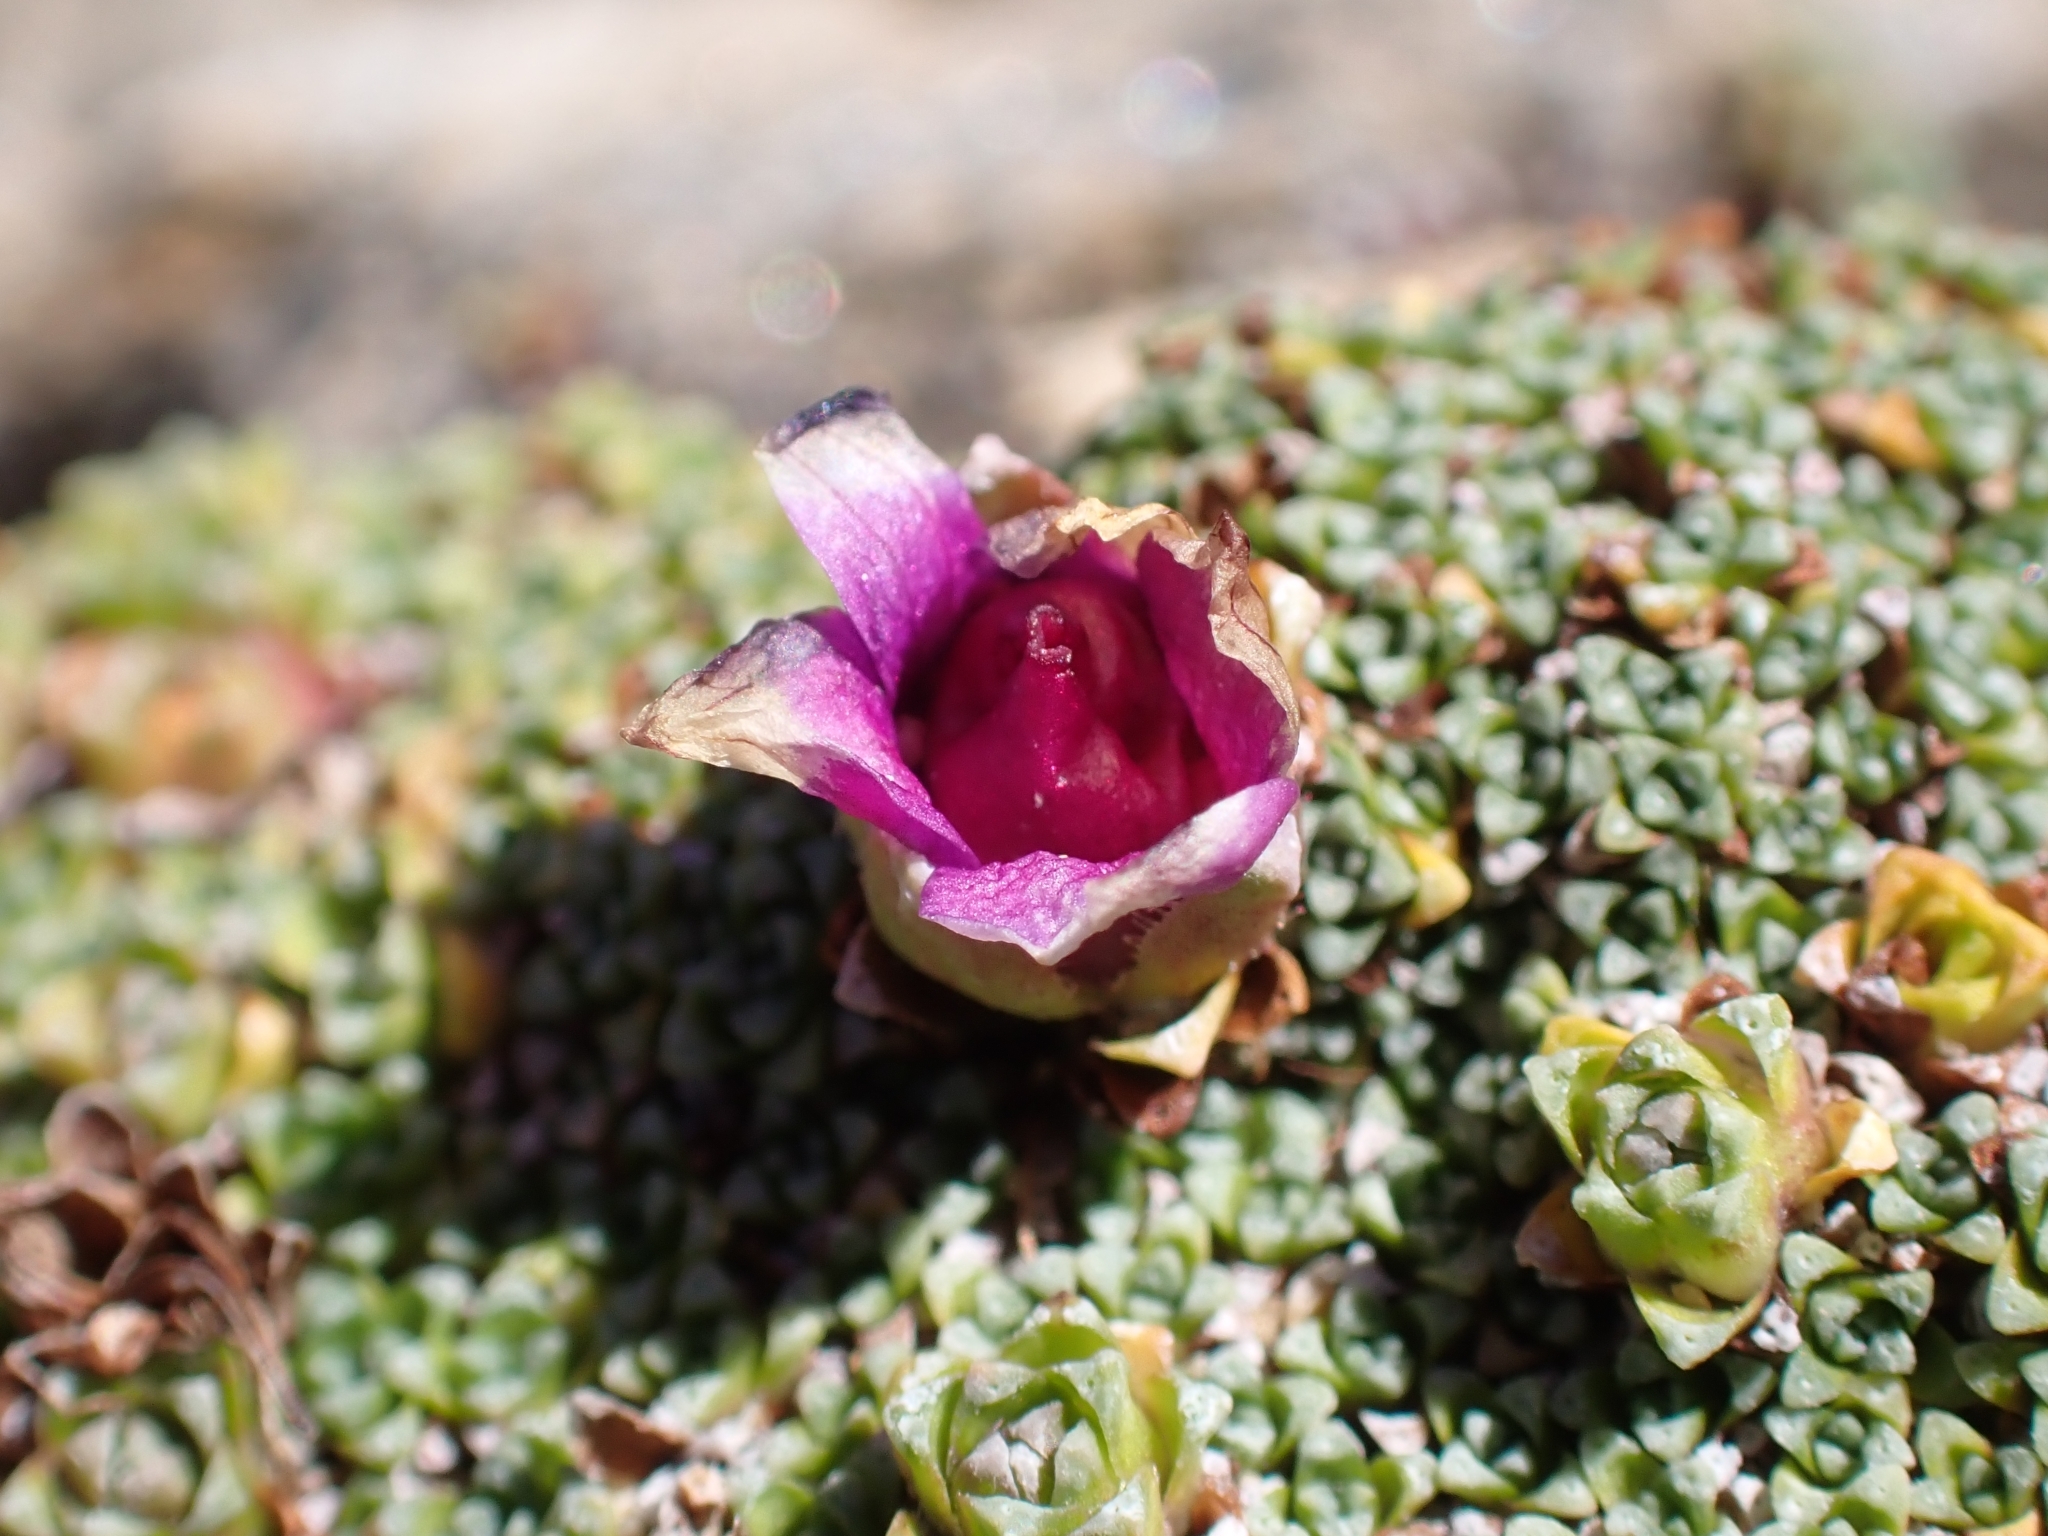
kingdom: Plantae
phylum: Tracheophyta
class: Magnoliopsida
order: Saxifragales
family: Saxifragaceae
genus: Saxifraga
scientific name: Saxifraga oppositifolia
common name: Purple saxifrage
